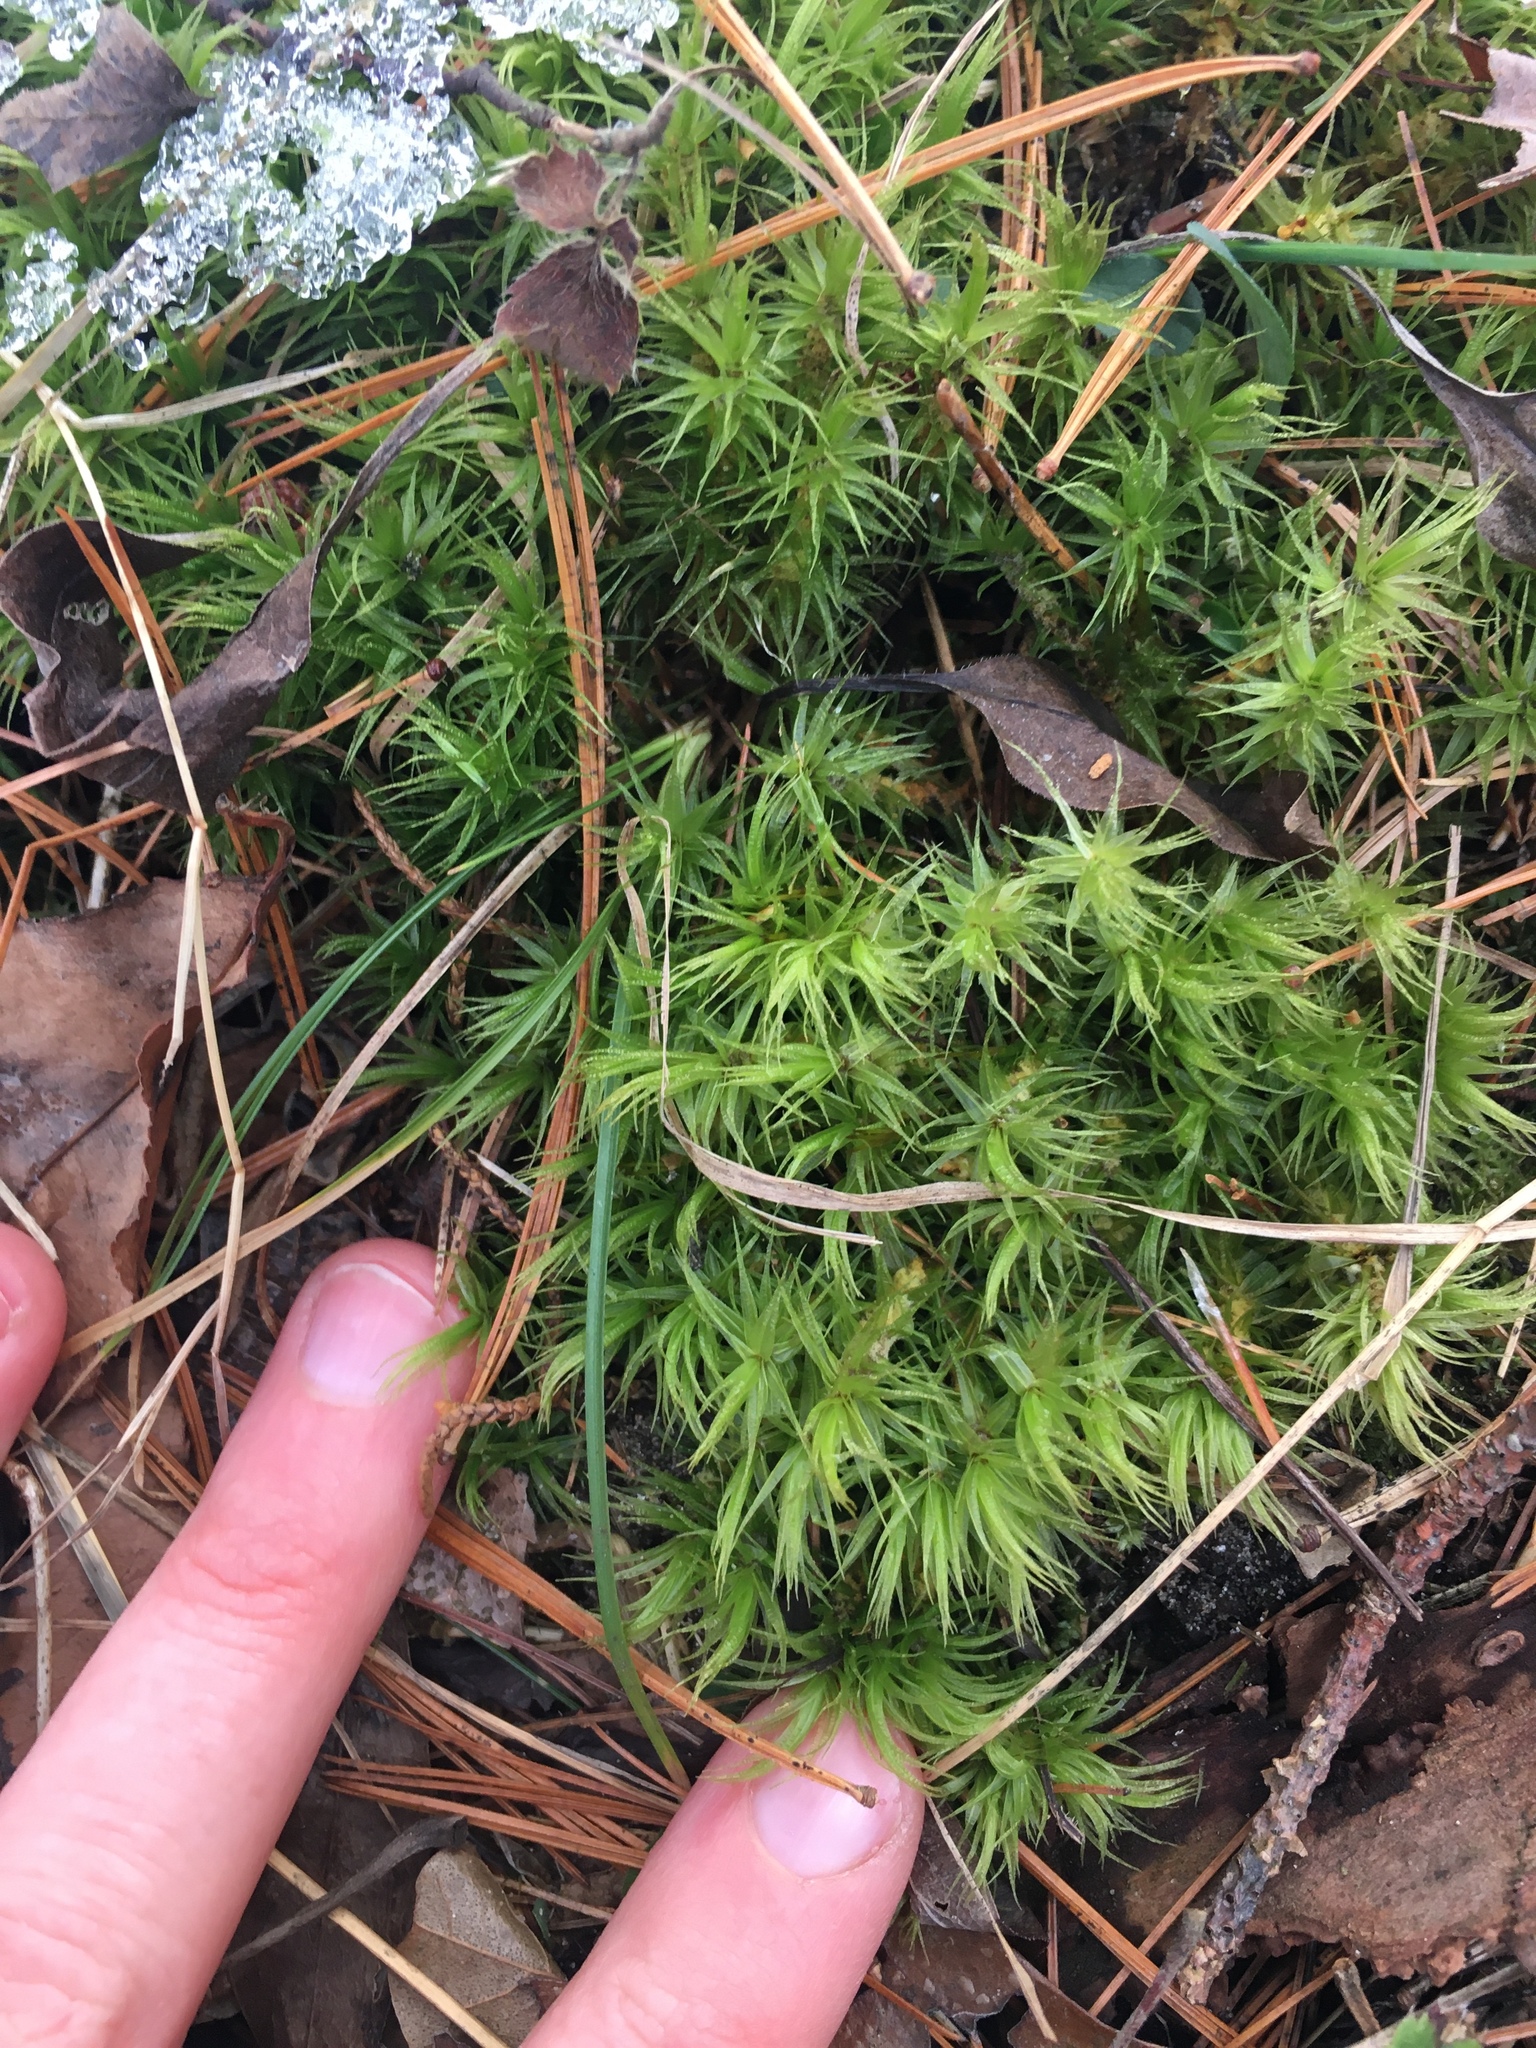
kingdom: Plantae
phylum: Bryophyta
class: Bryopsida
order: Dicranales
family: Dicranaceae
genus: Dicranum
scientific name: Dicranum polysetum
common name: Rugose fork-moss
